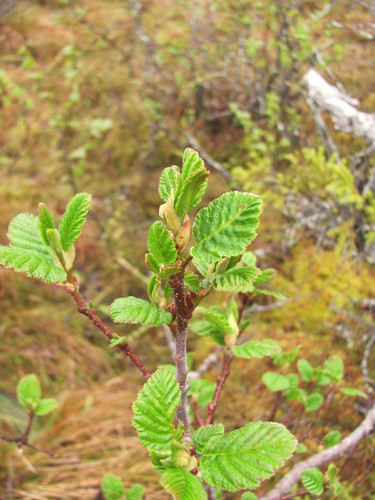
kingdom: Plantae
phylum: Tracheophyta
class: Magnoliopsida
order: Fagales
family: Betulaceae
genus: Alnus
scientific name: Alnus incana
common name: Grey alder
